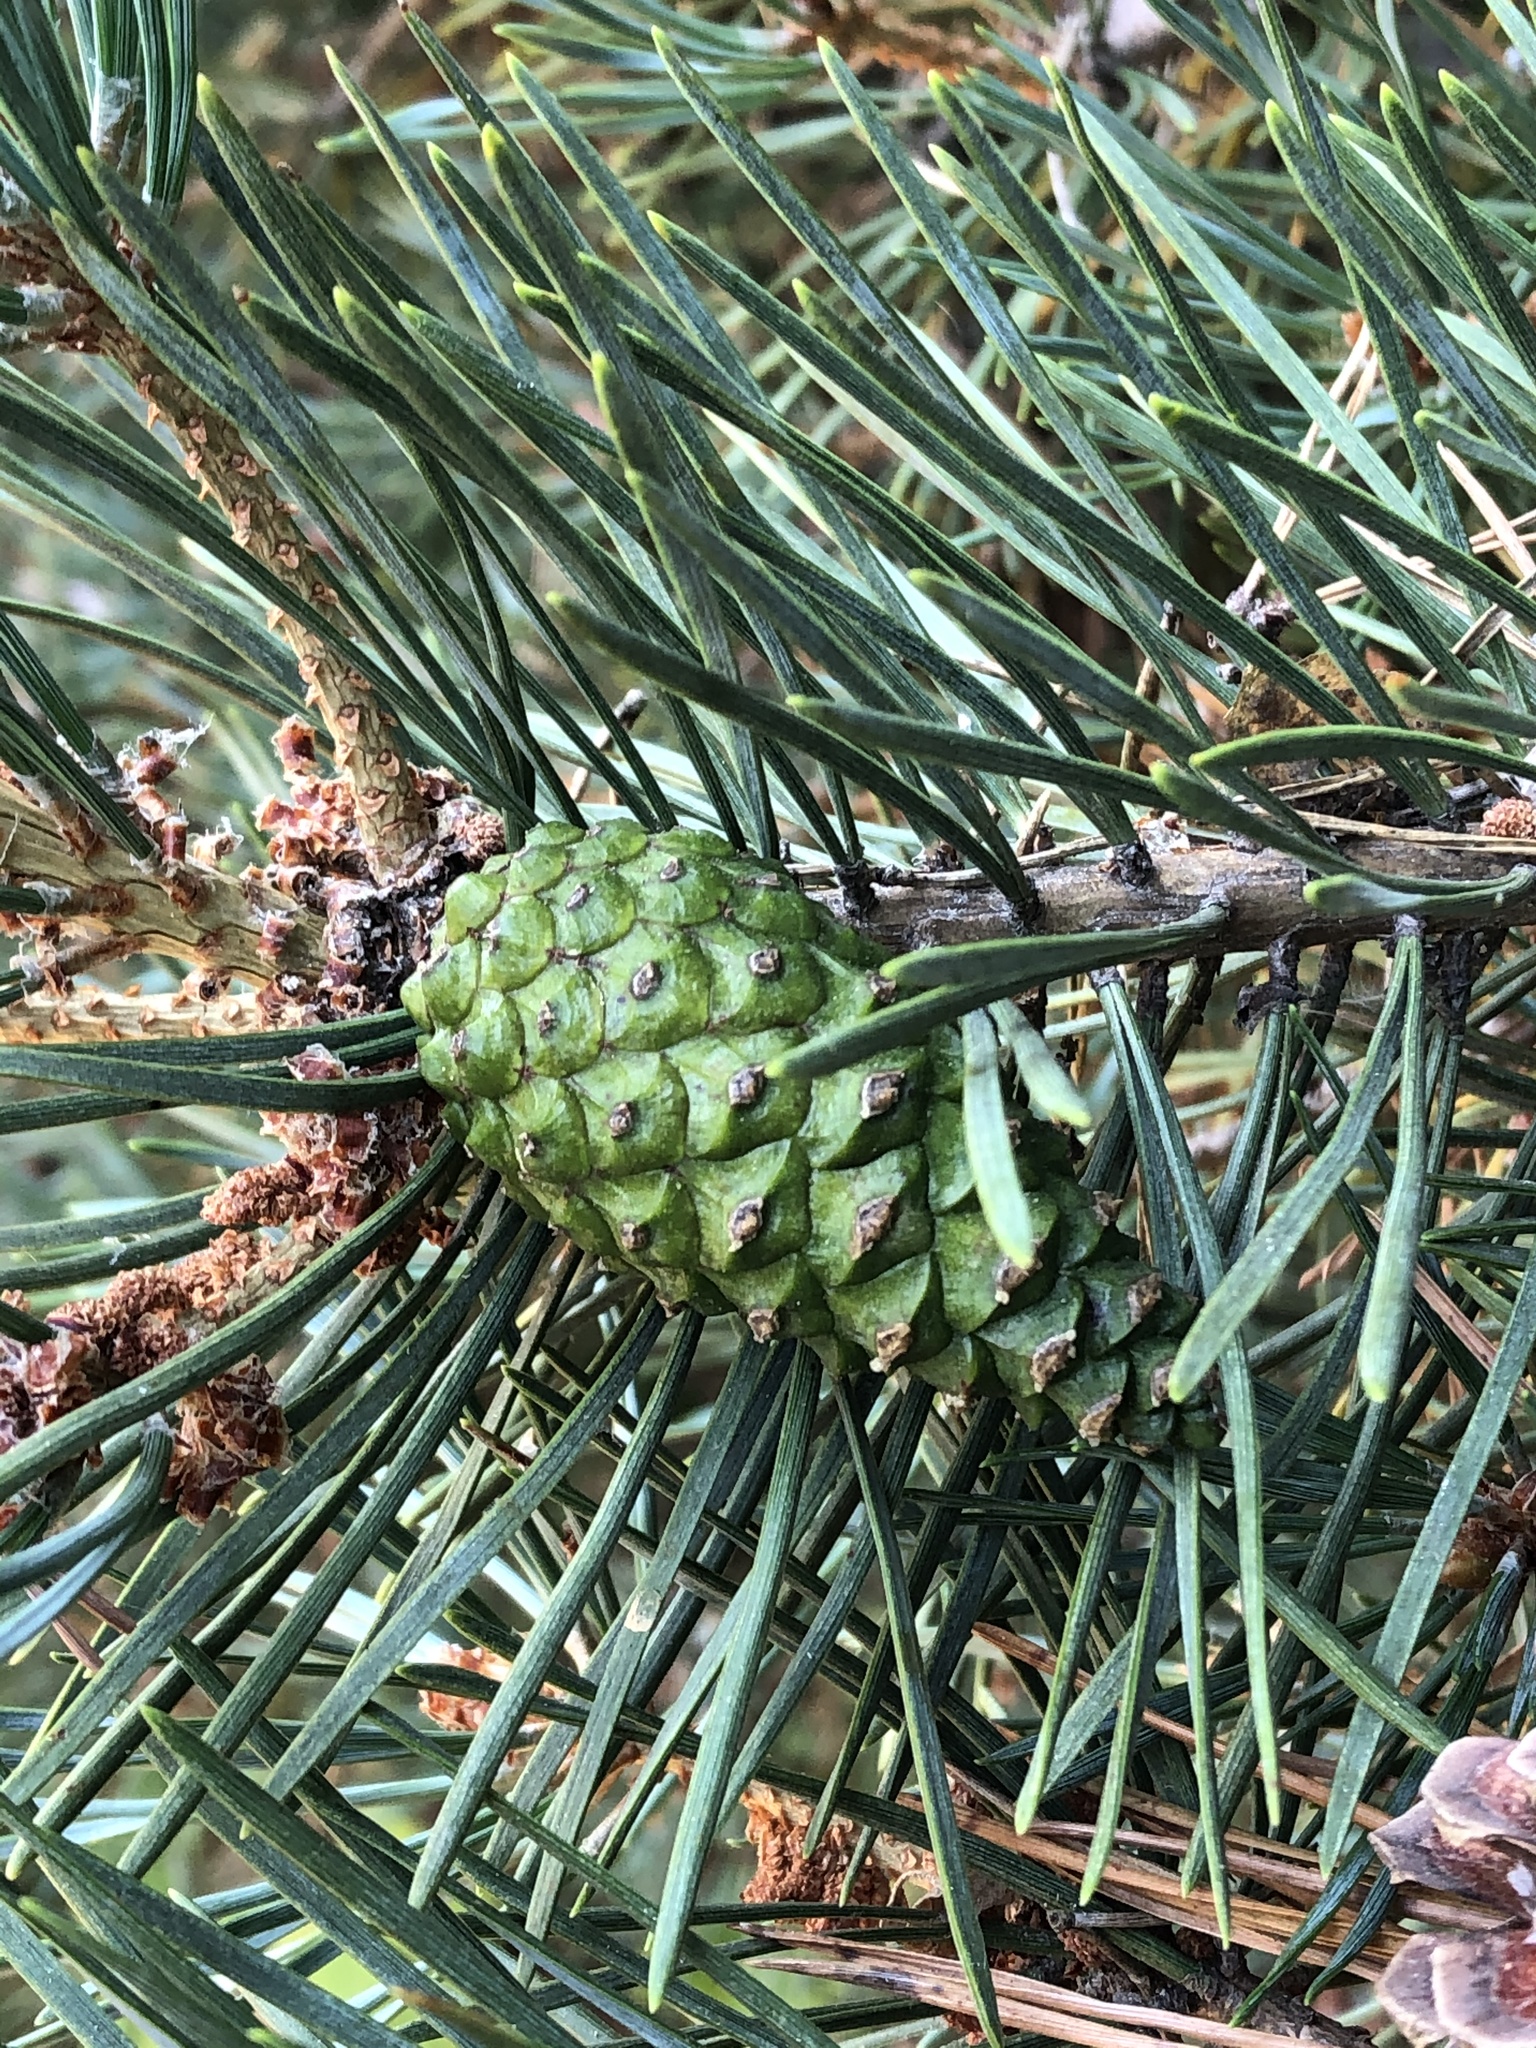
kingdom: Plantae
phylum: Tracheophyta
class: Pinopsida
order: Pinales
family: Pinaceae
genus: Pinus
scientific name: Pinus contorta
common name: Lodgepole pine
